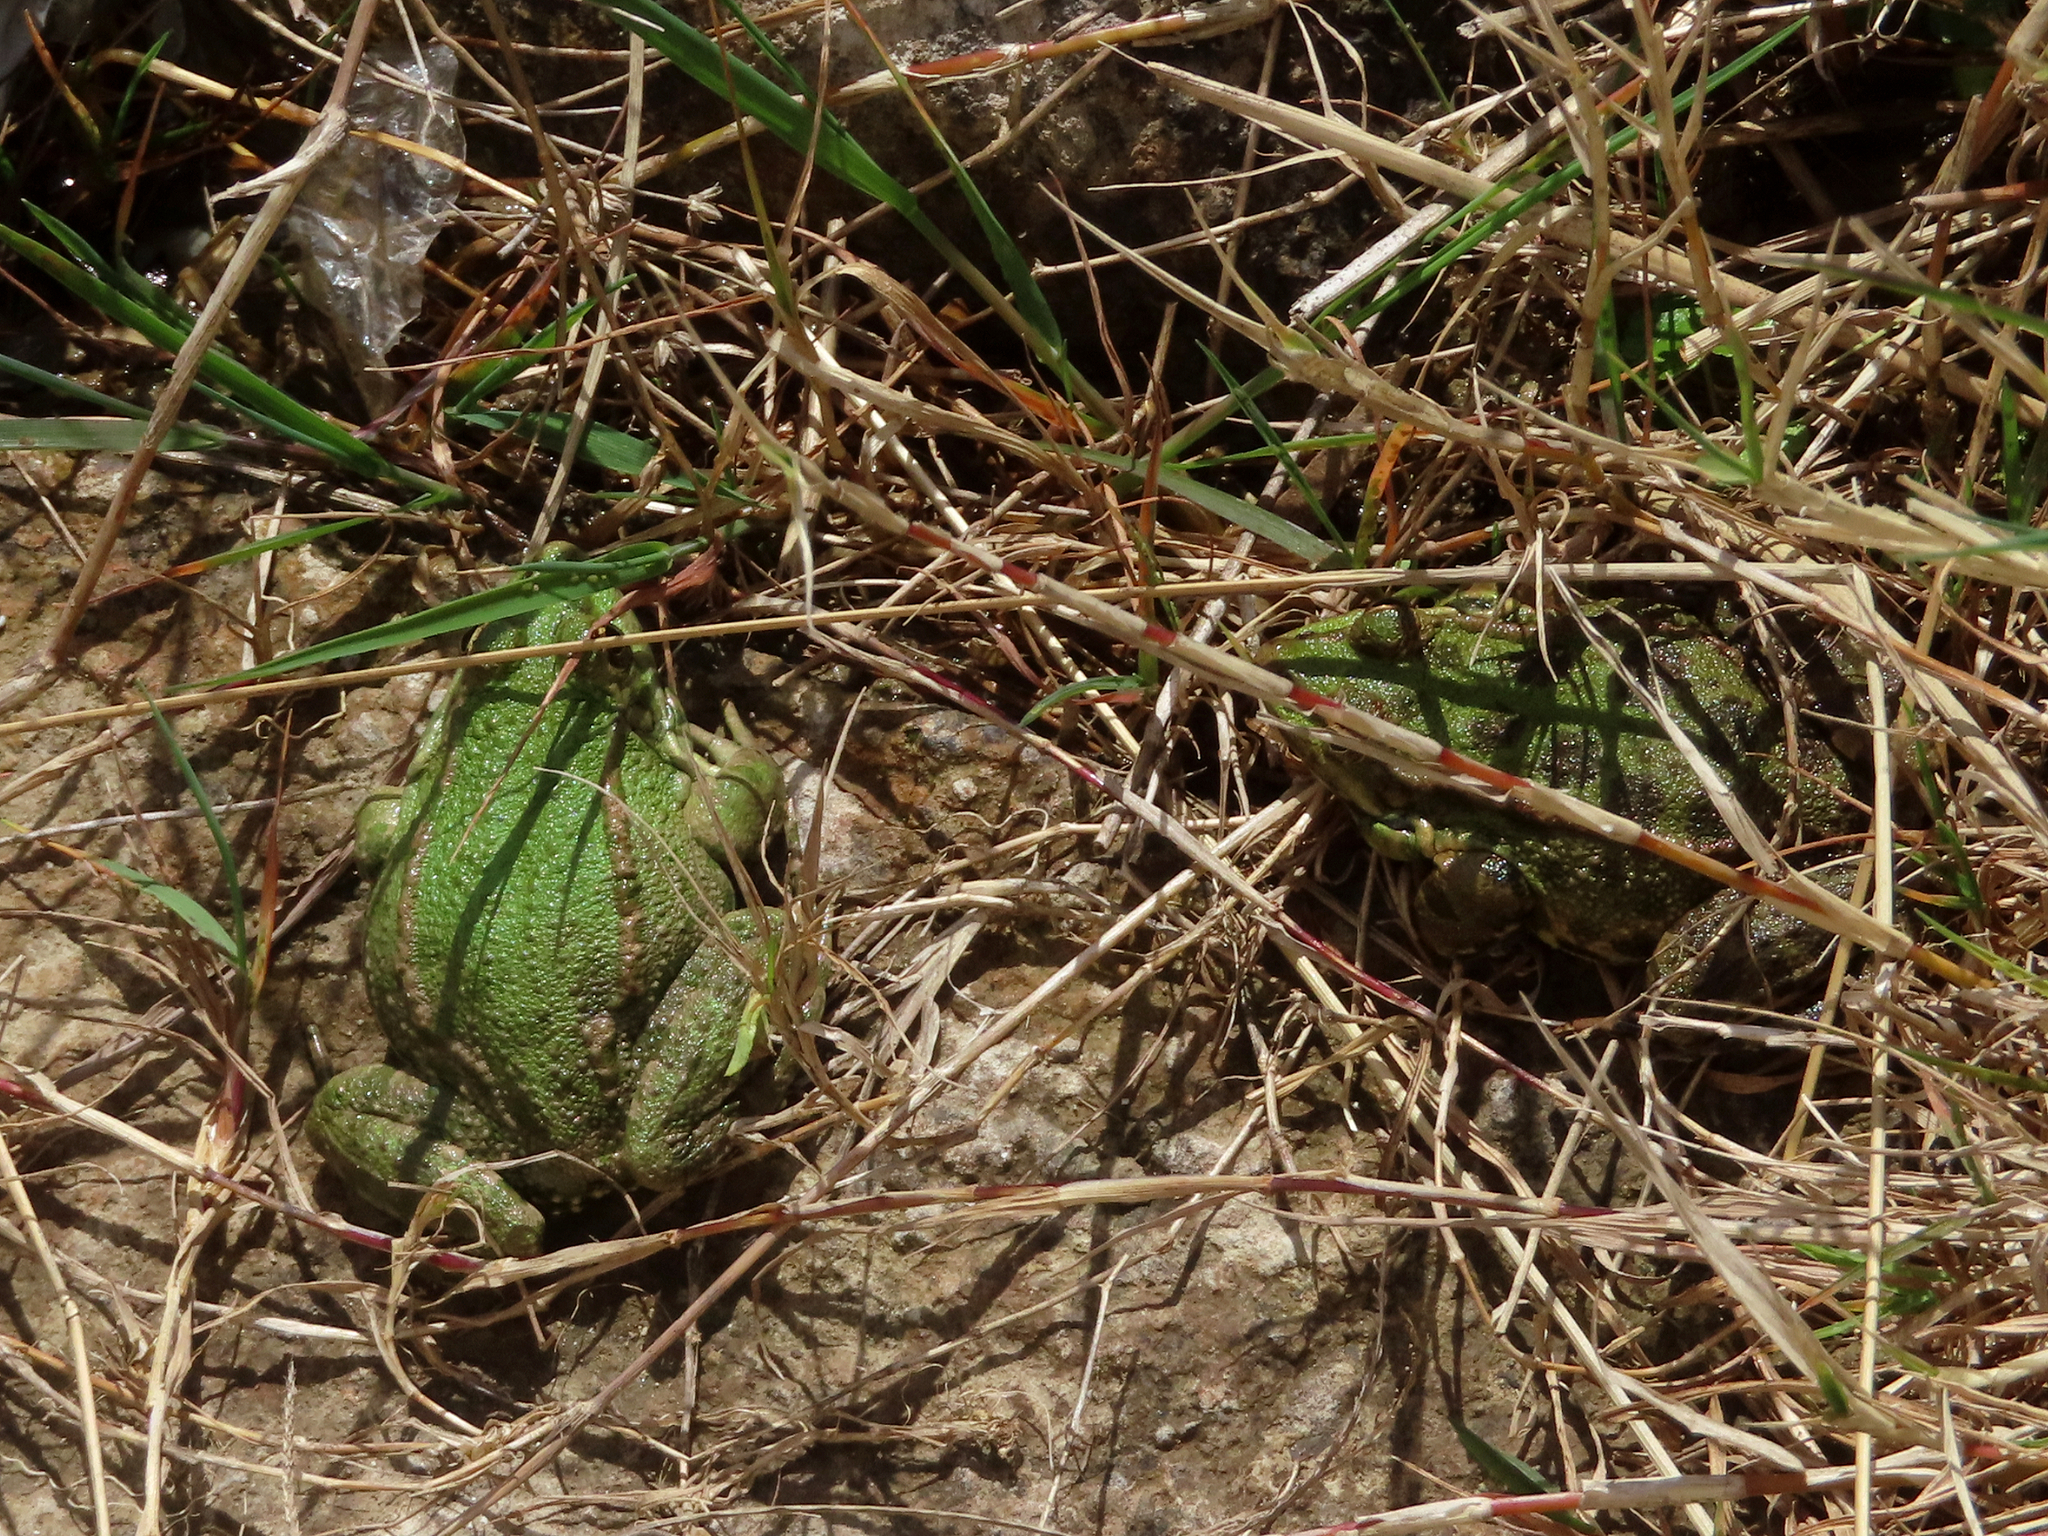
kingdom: Animalia
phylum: Chordata
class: Amphibia
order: Anura
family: Ranidae
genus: Pelophylax
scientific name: Pelophylax ridibundus
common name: Marsh frog
